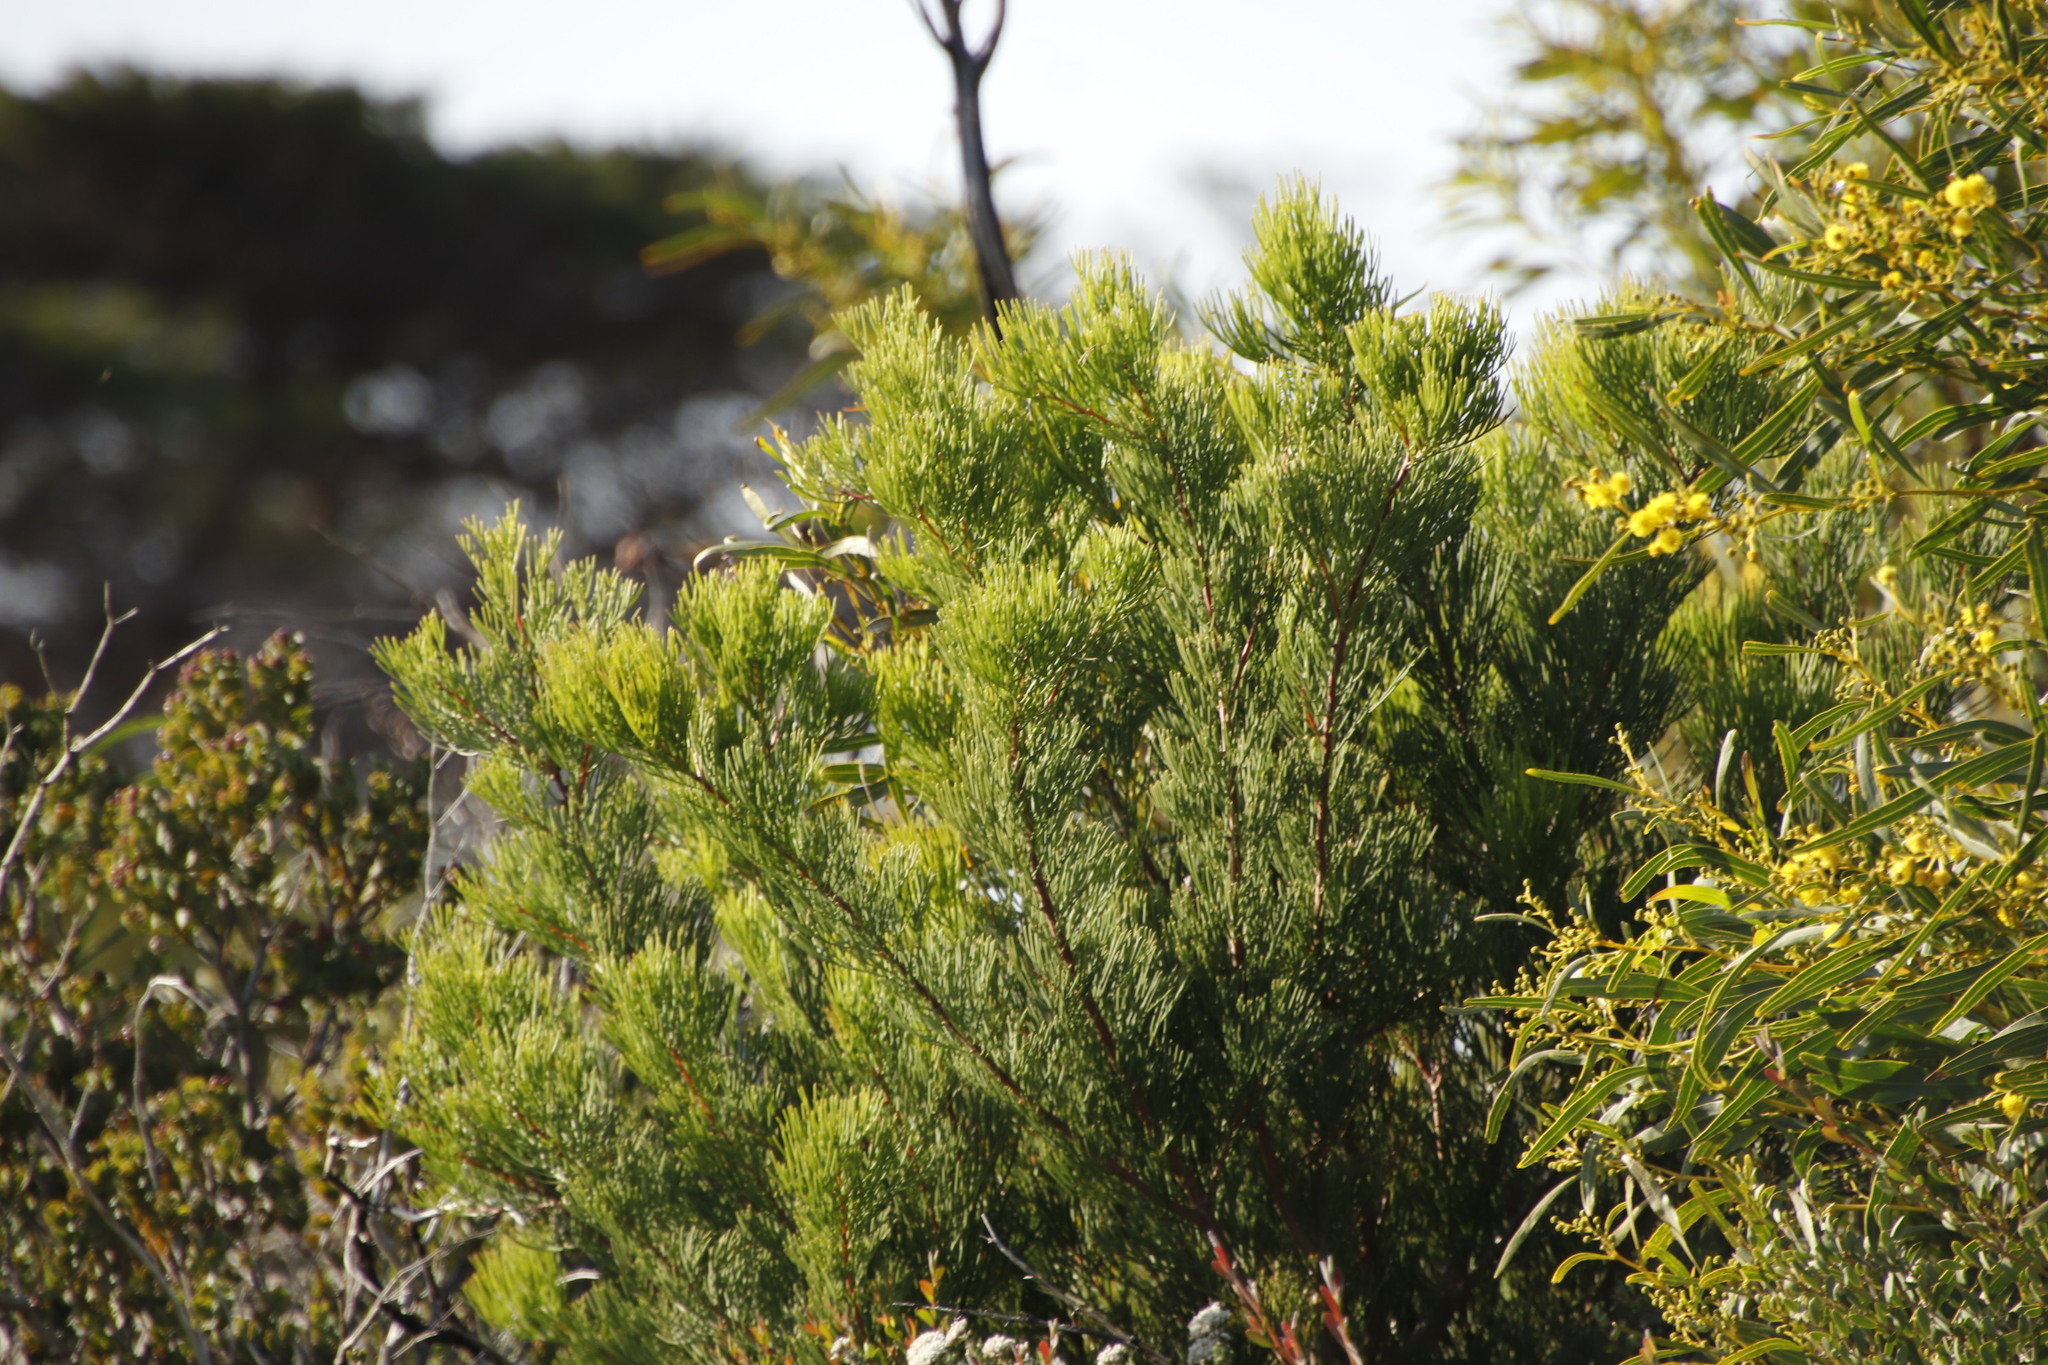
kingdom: Plantae
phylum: Tracheophyta
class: Magnoliopsida
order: Proteales
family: Proteaceae
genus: Hakea
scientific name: Hakea drupacea
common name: Sweet hakea
